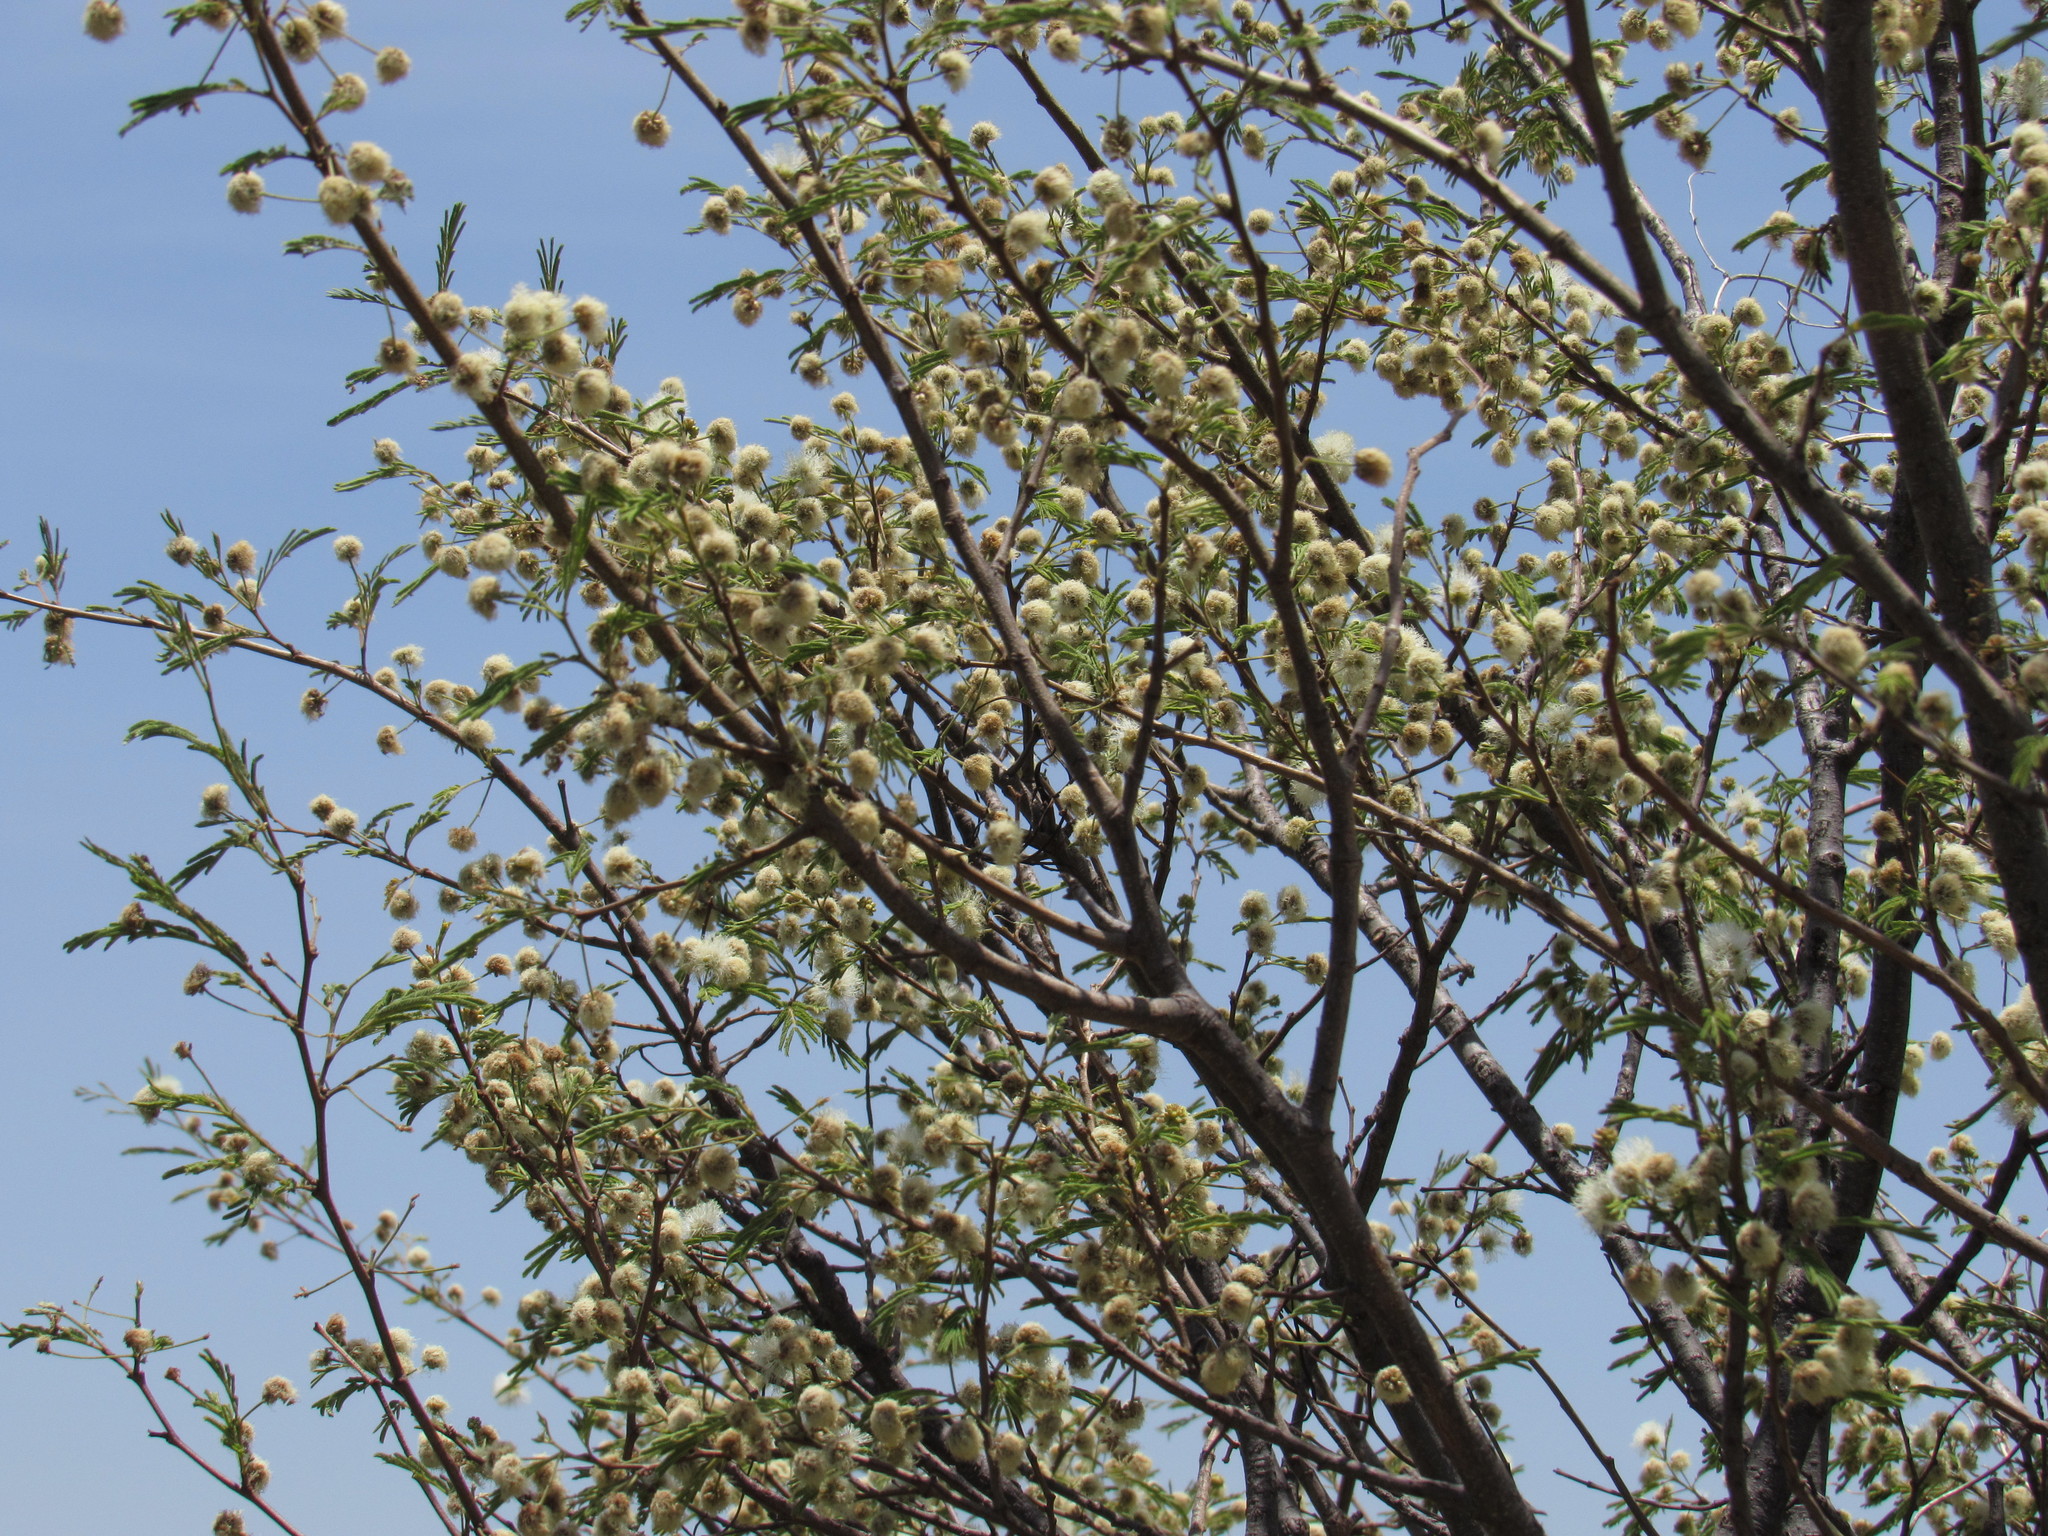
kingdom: Plantae
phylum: Tracheophyta
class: Magnoliopsida
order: Fabales
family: Fabaceae
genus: Leucaena
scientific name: Leucaena leucocephala
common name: White leadtree
